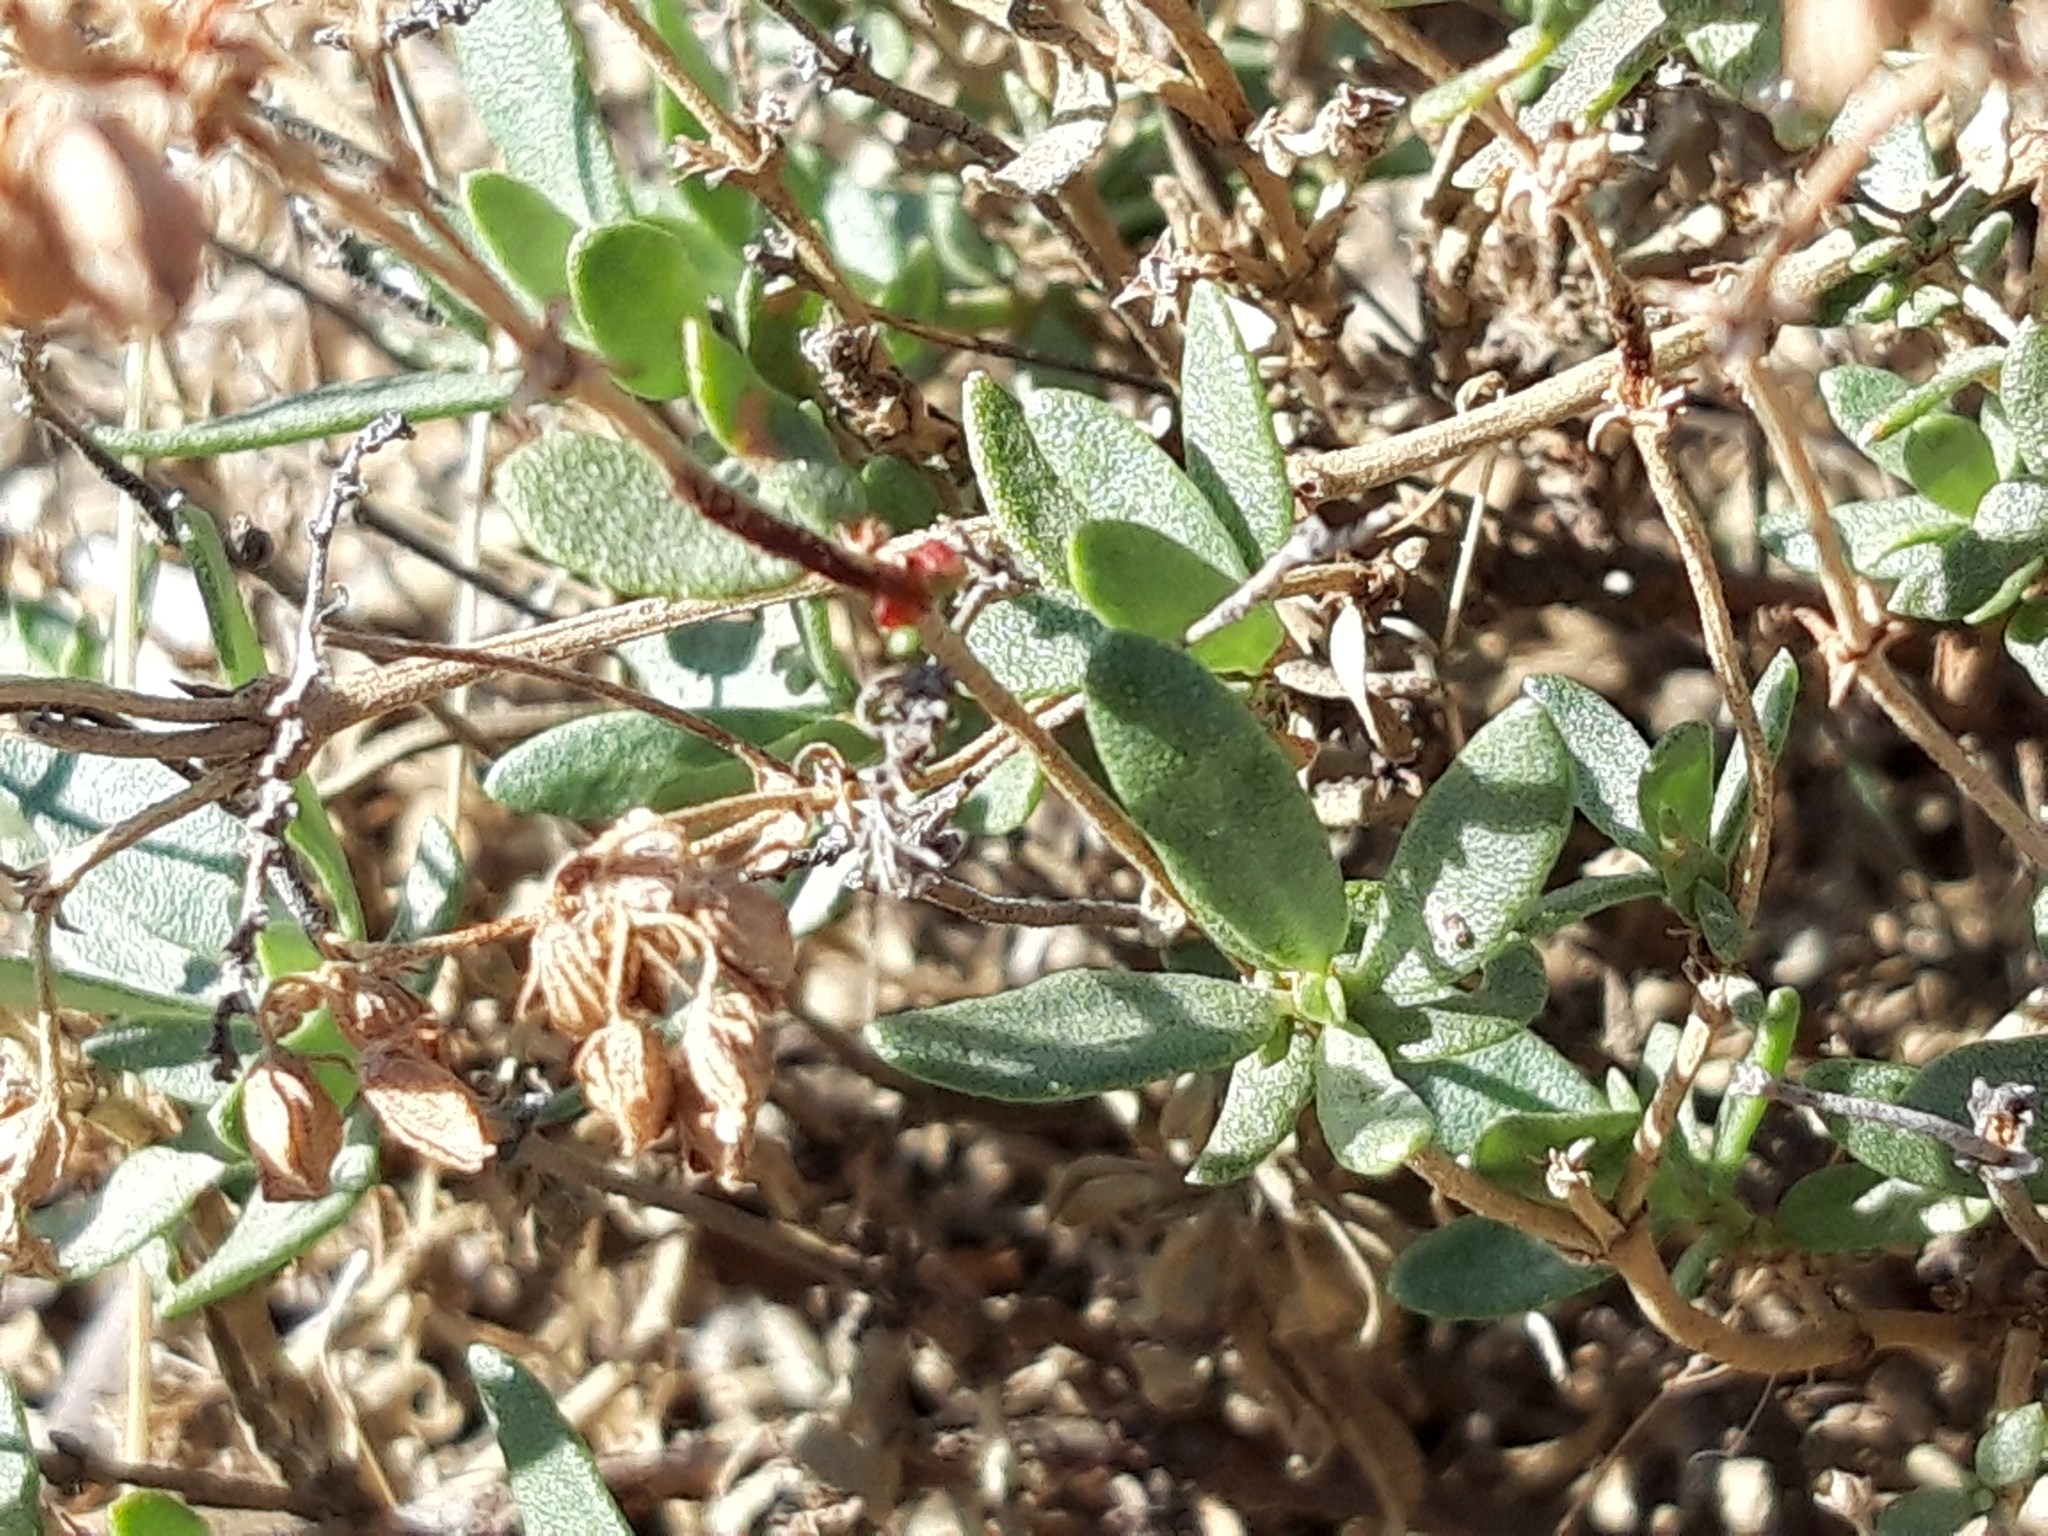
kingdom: Plantae
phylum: Tracheophyta
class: Magnoliopsida
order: Malvales
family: Cistaceae
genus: Helianthemum
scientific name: Helianthemum squamatum
